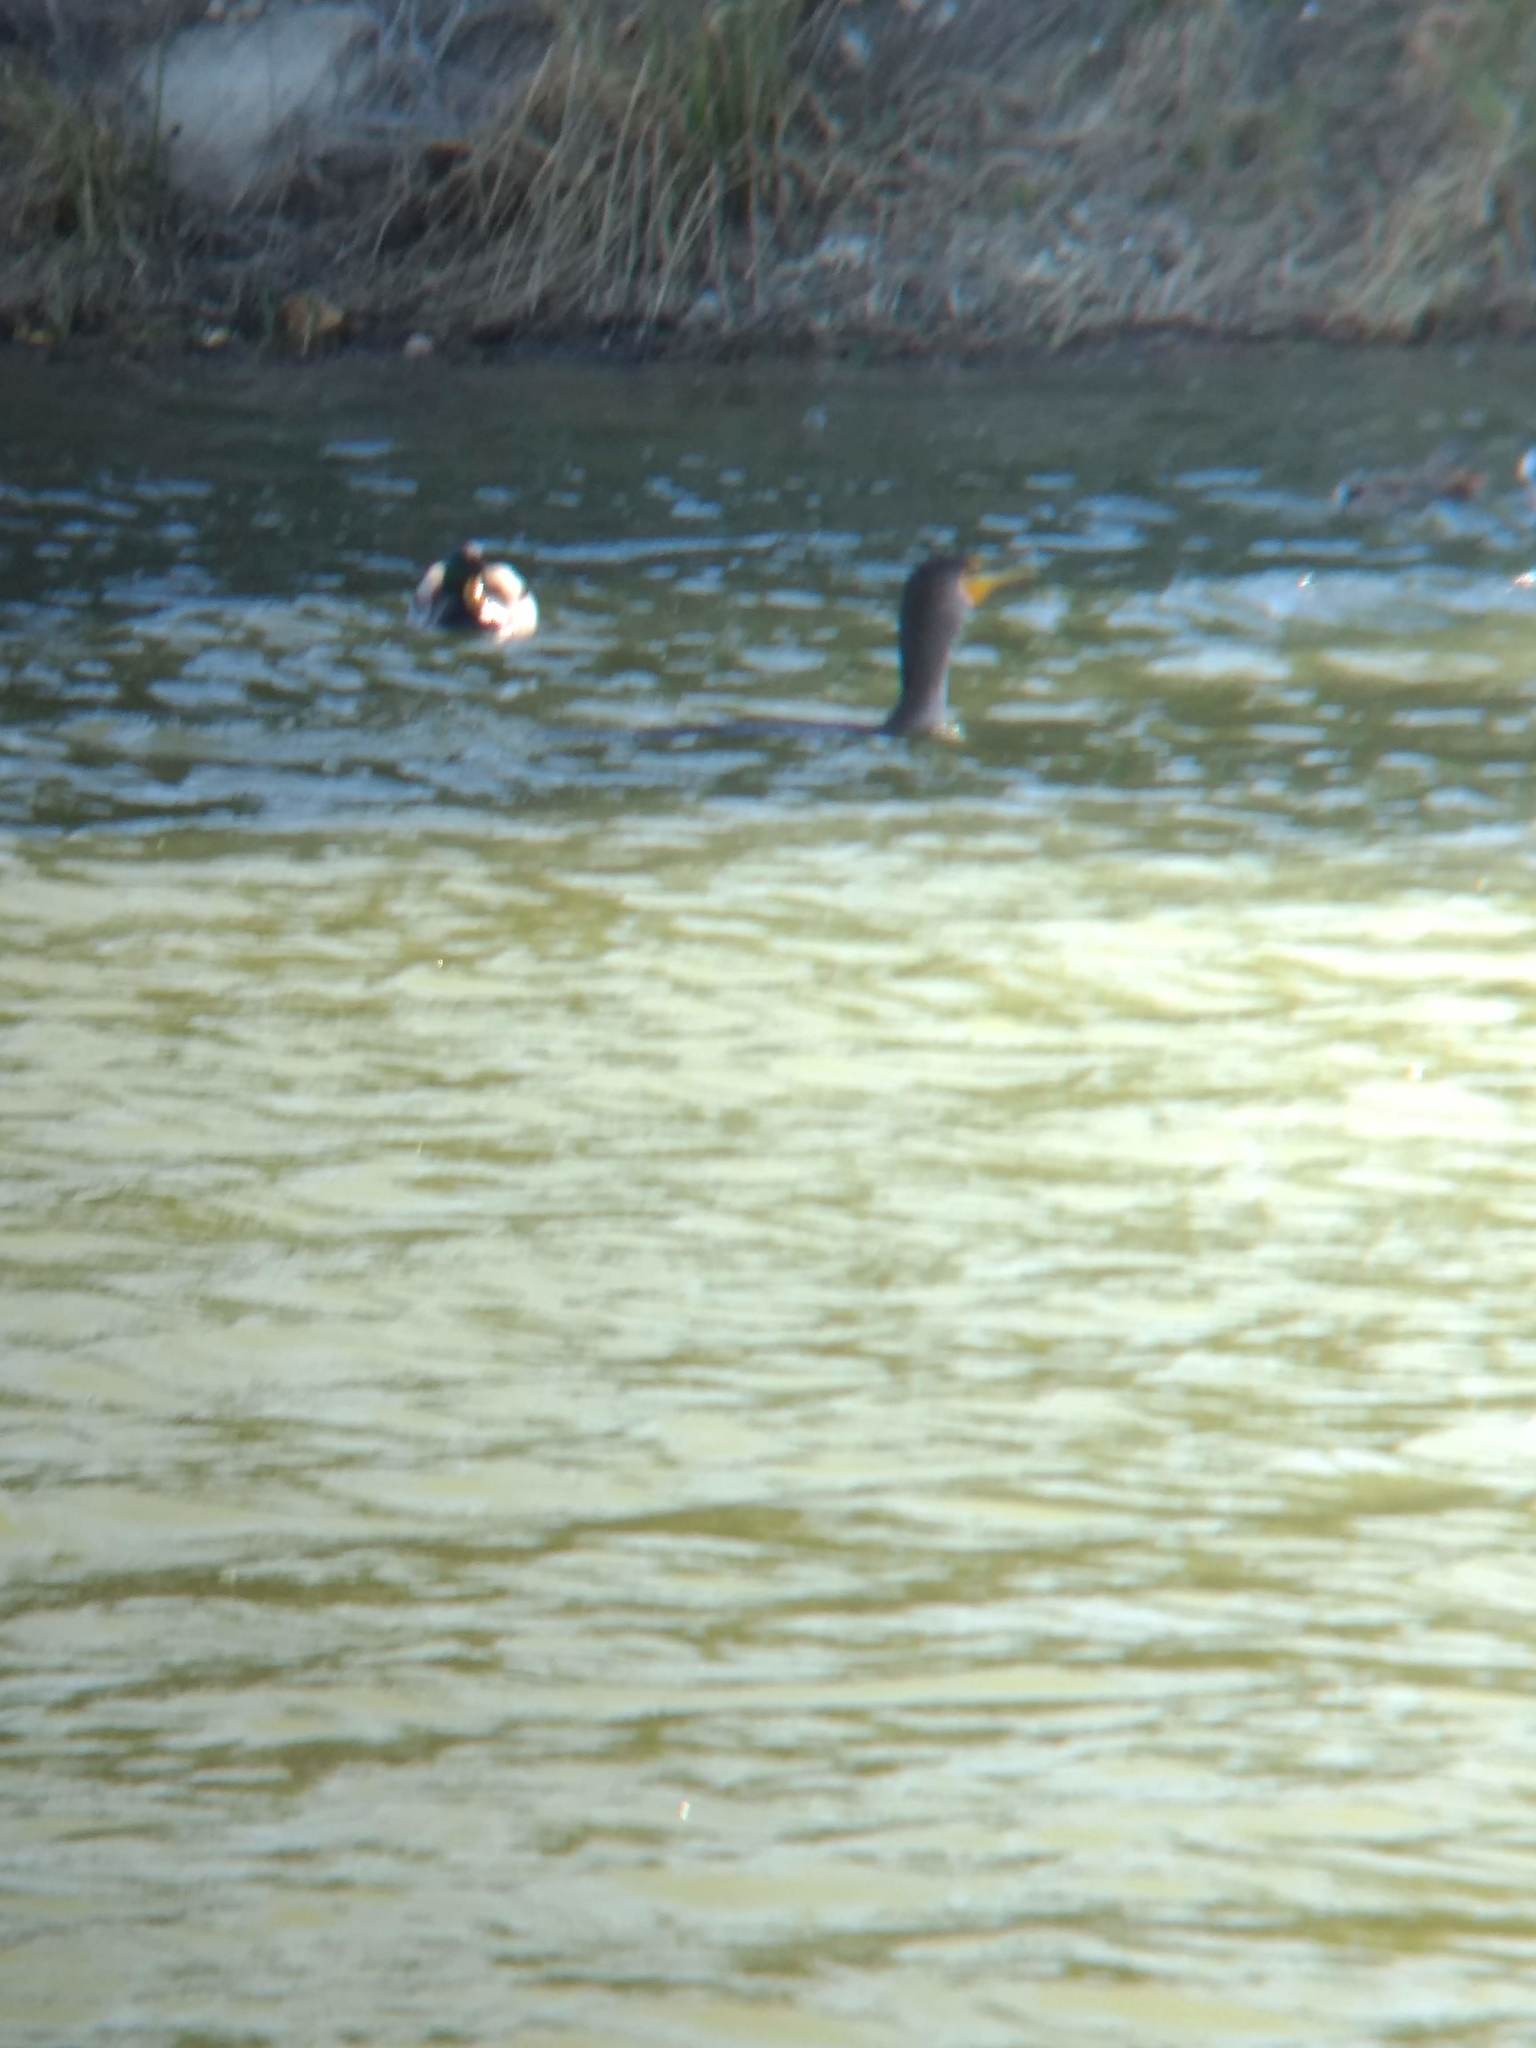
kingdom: Animalia
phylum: Chordata
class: Aves
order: Suliformes
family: Phalacrocoracidae
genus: Phalacrocorax
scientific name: Phalacrocorax auritus
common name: Double-crested cormorant
